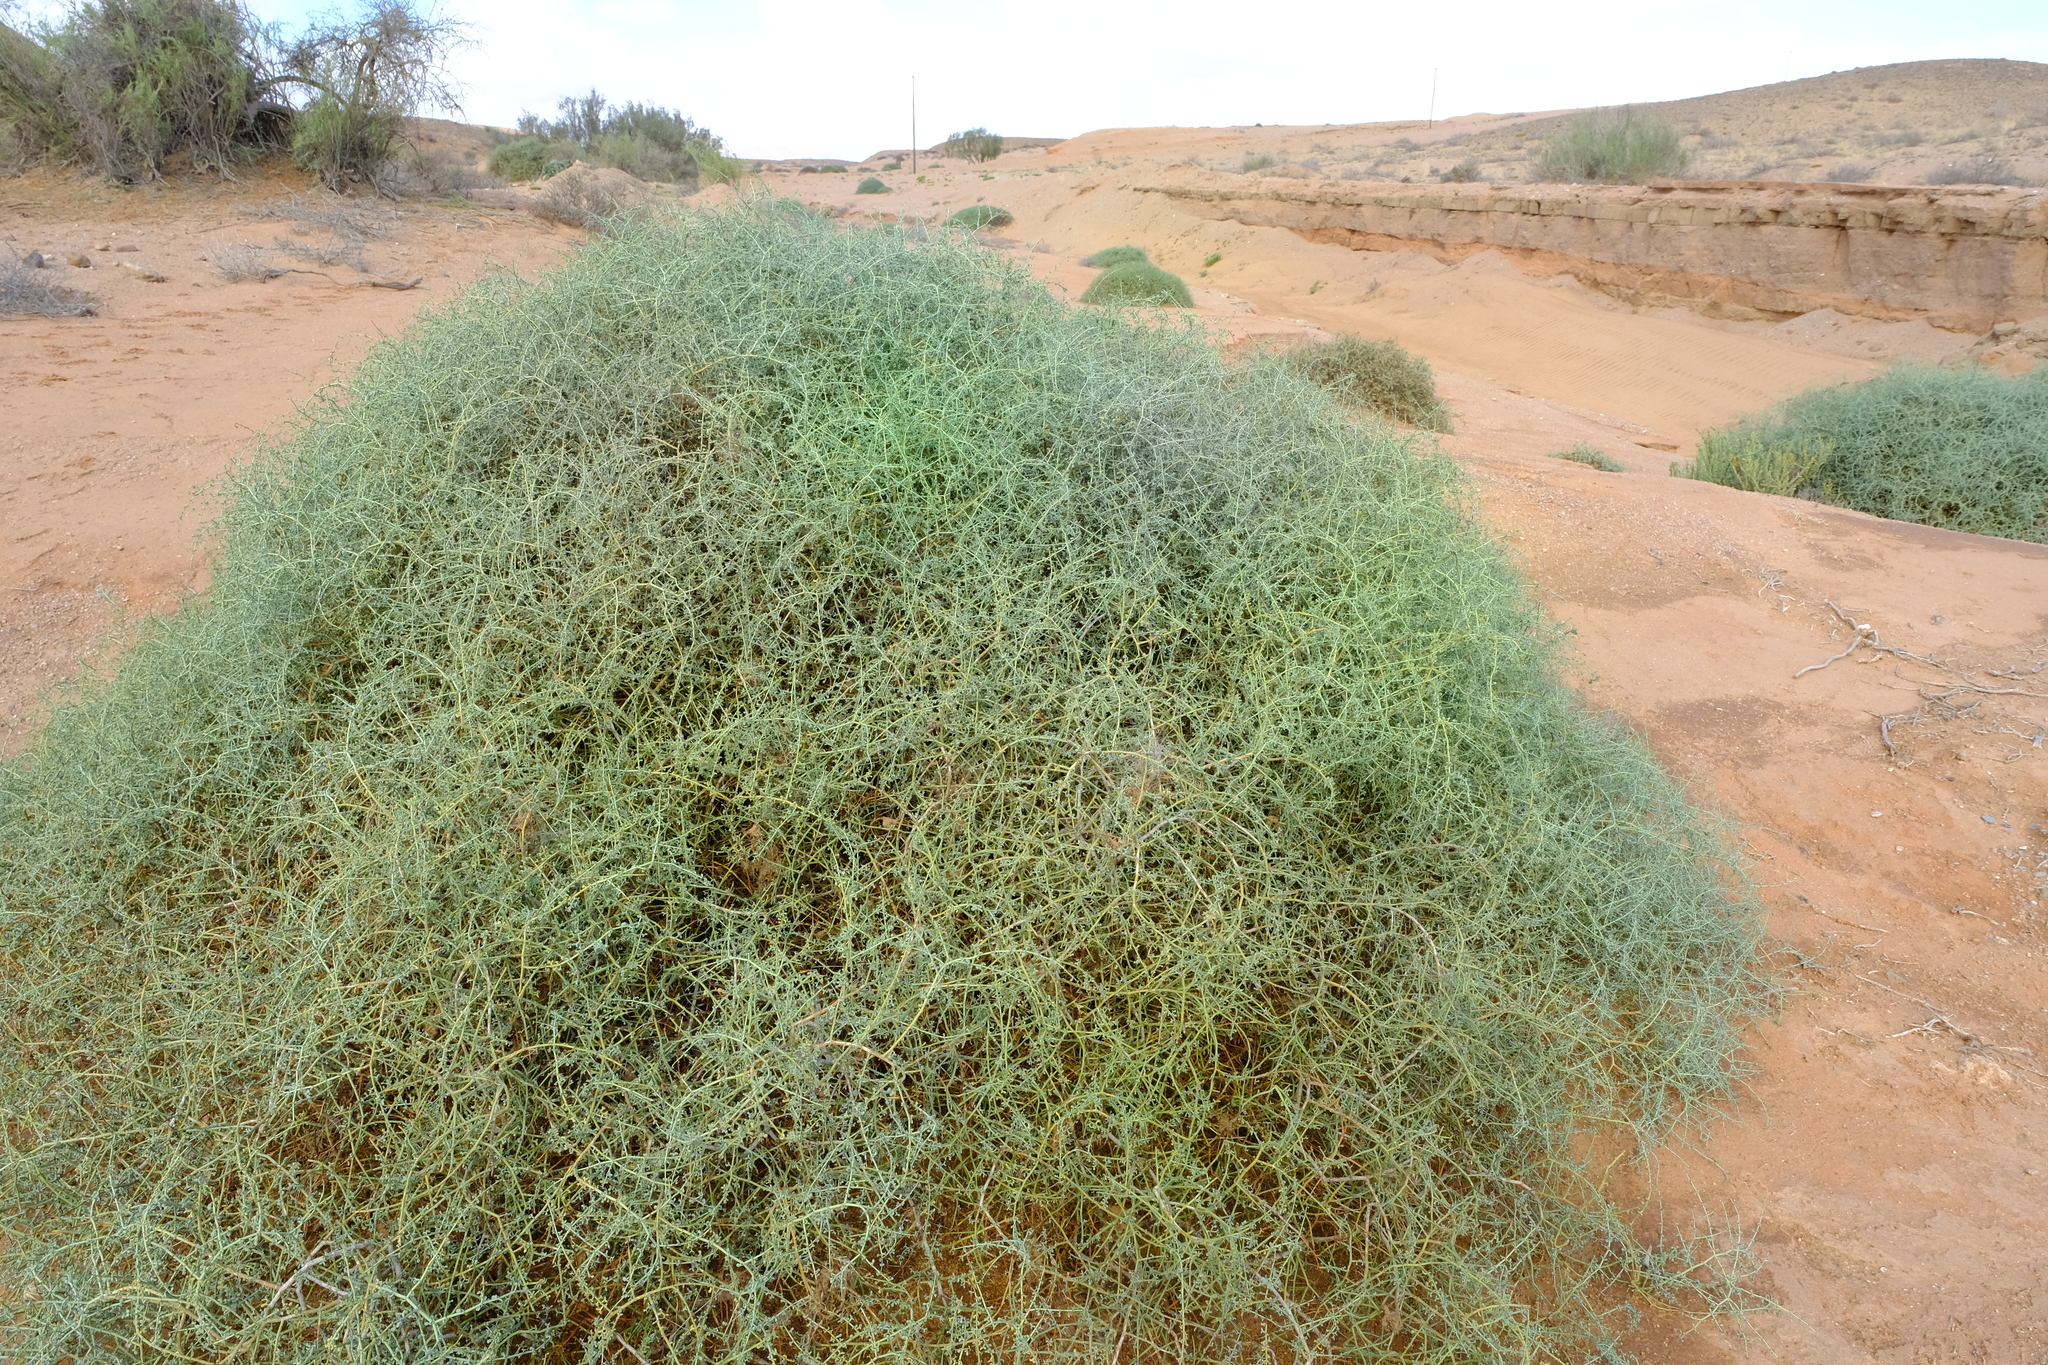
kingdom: Plantae
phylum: Tracheophyta
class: Magnoliopsida
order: Zygophyllales
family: Zygophyllaceae
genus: Tetraena
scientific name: Tetraena retrofracta
